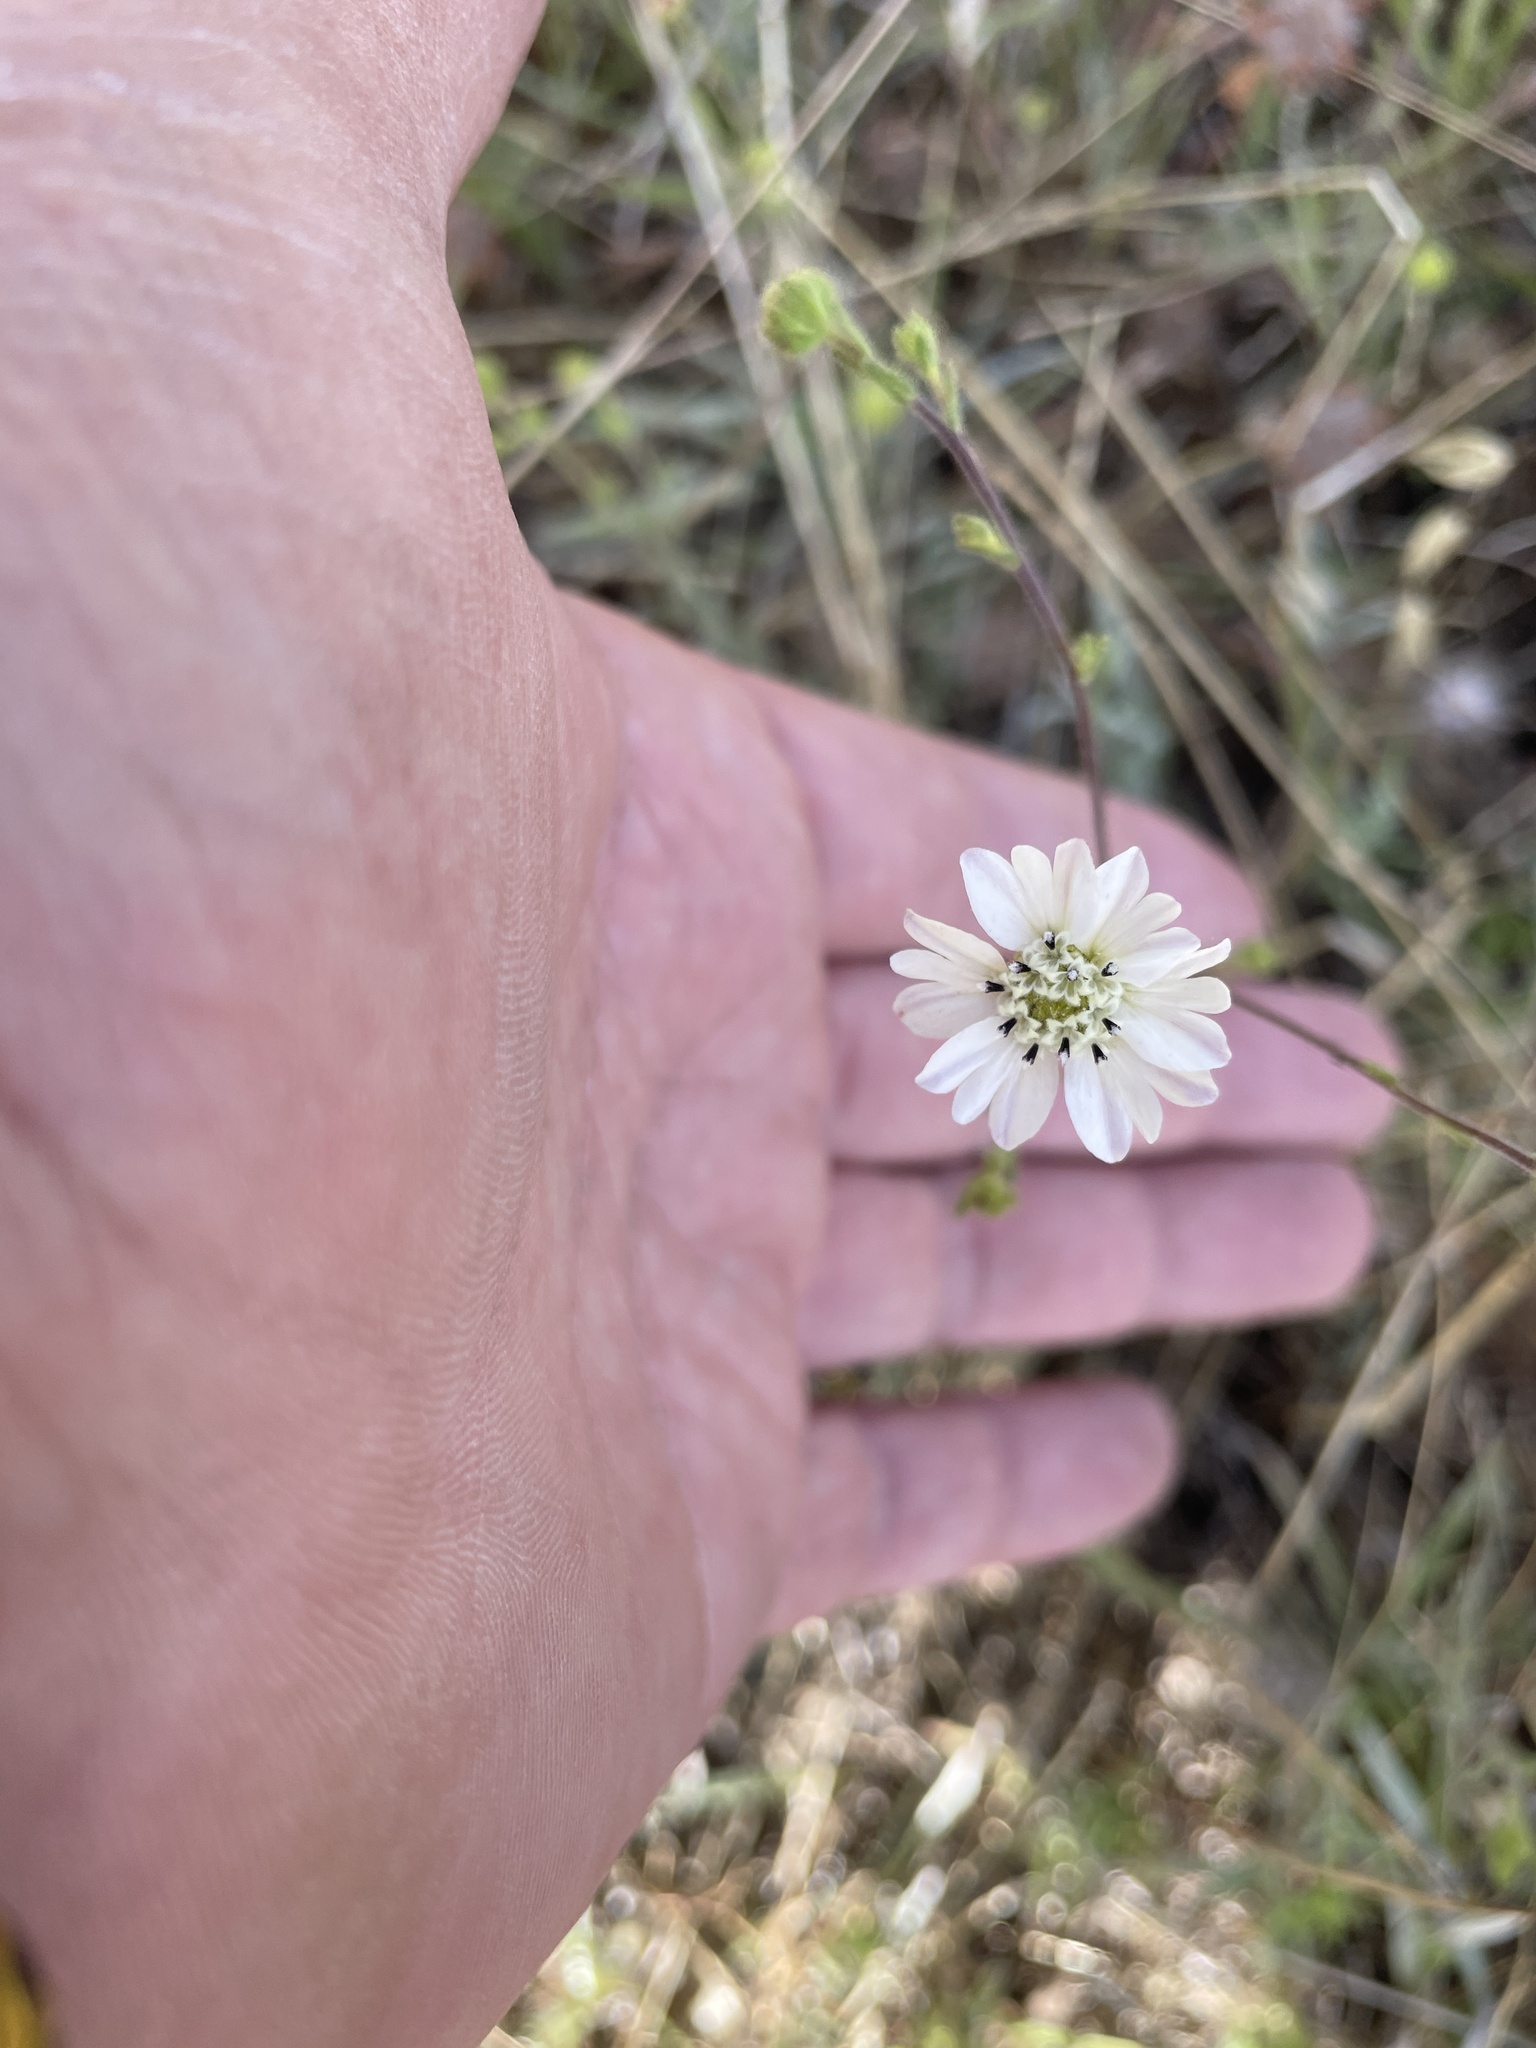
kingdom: Plantae
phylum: Tracheophyta
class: Magnoliopsida
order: Asterales
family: Asteraceae
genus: Hemizonia
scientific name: Hemizonia congesta
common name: Hayfield tarweed
